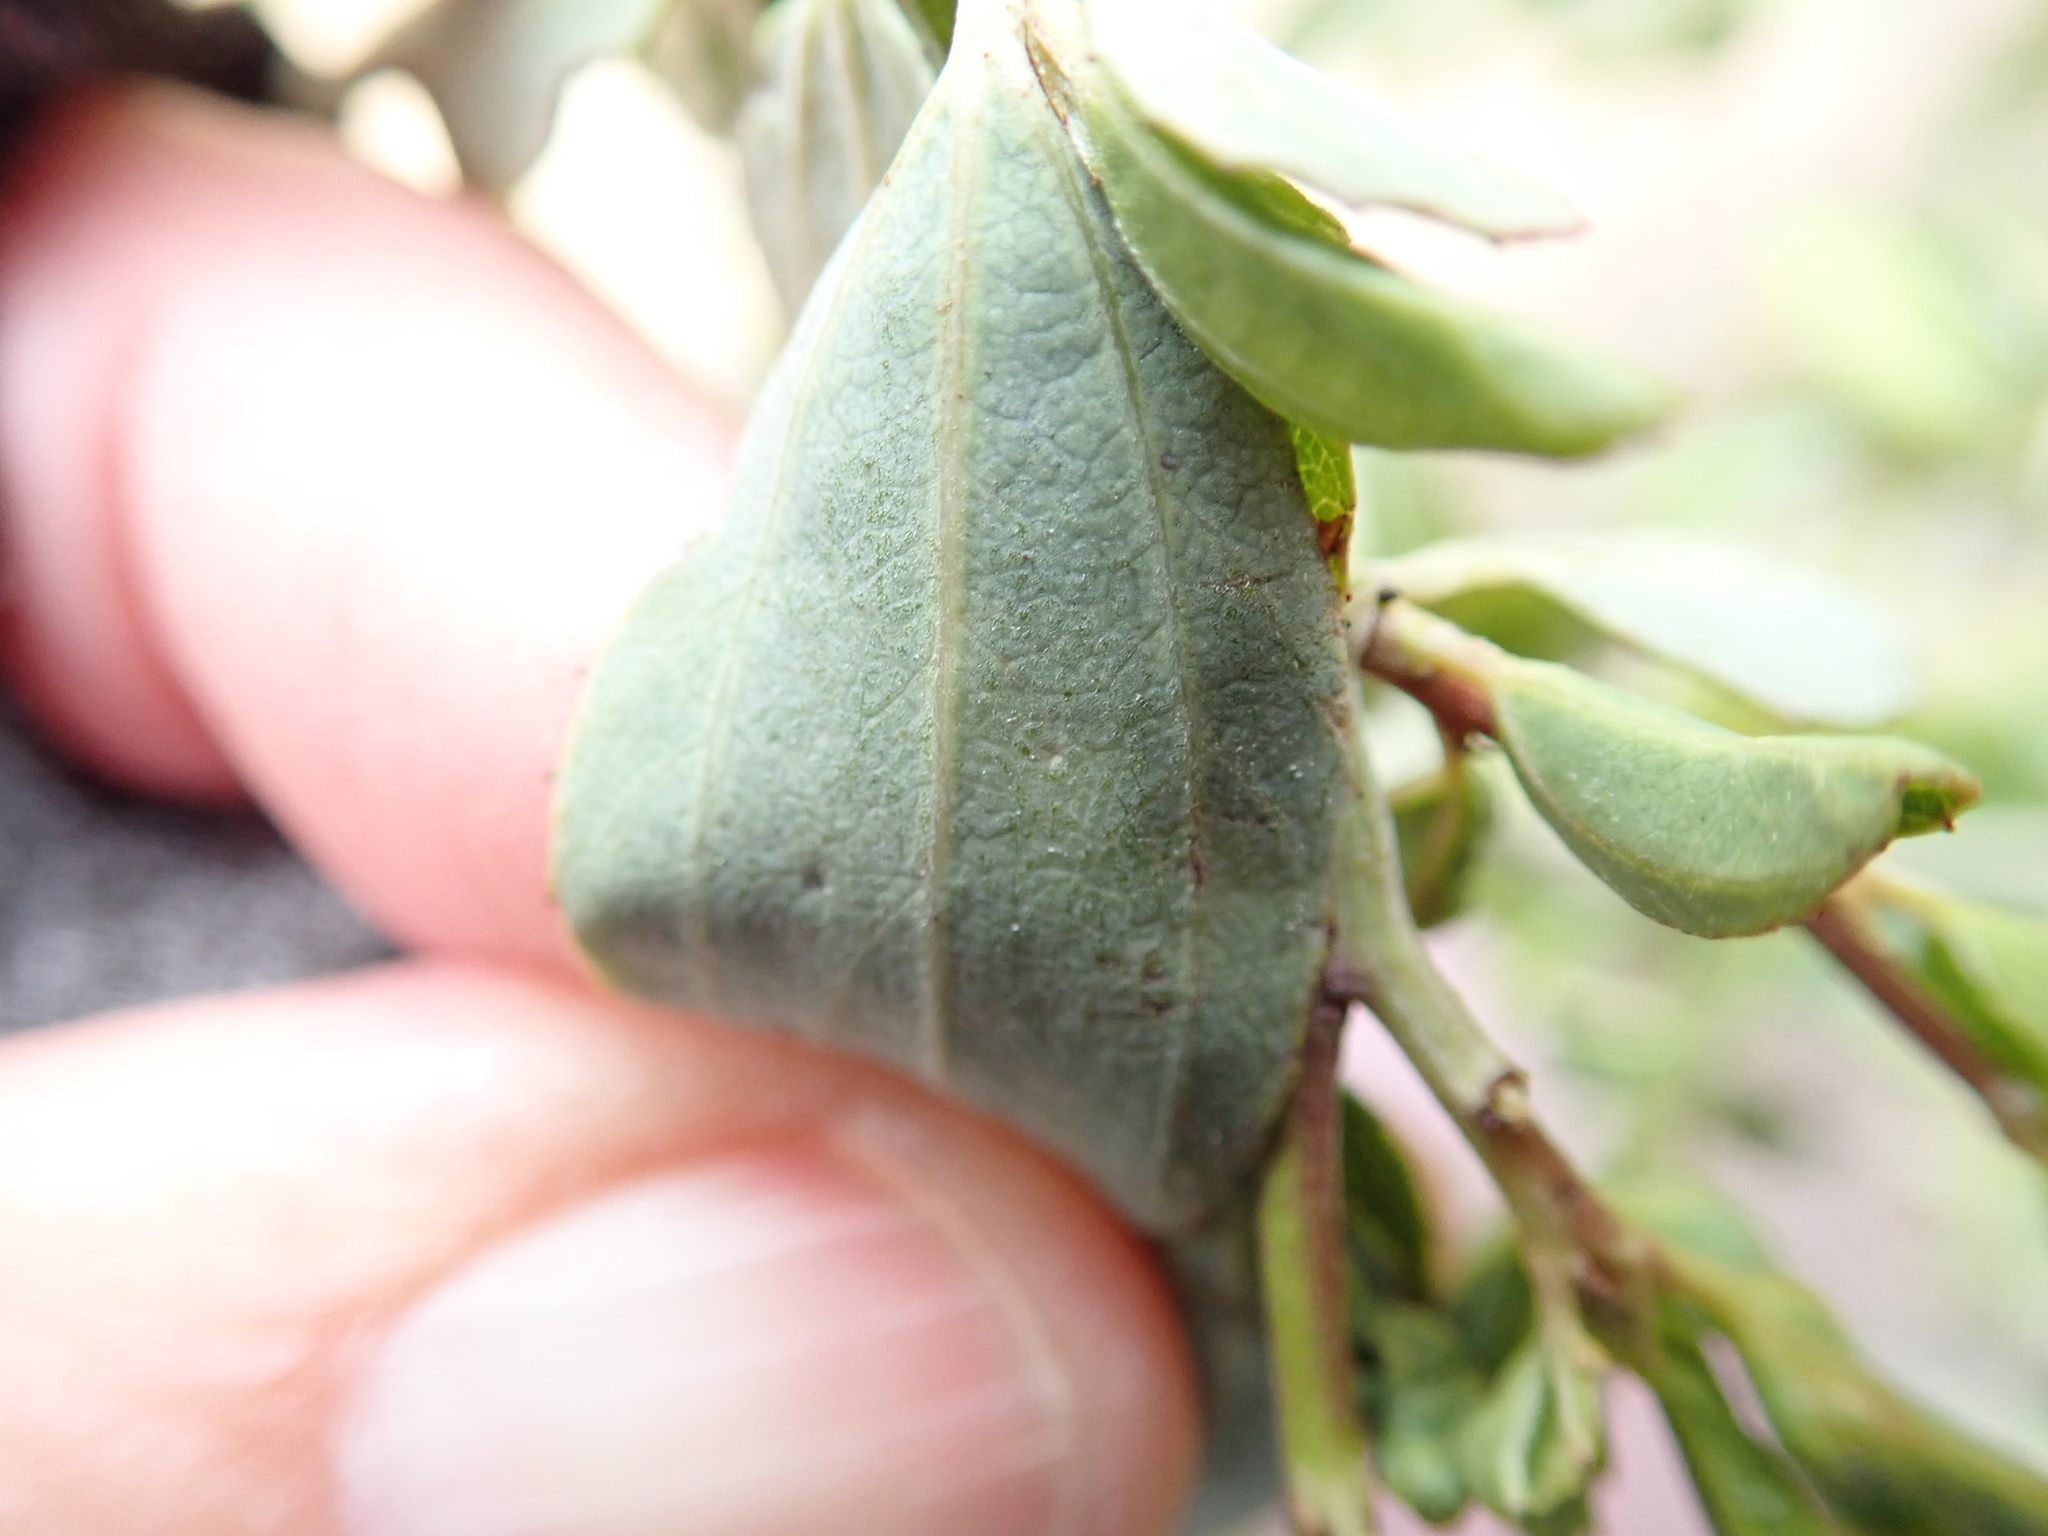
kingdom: Plantae
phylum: Tracheophyta
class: Magnoliopsida
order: Rosales
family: Rhamnaceae
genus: Ceanothus
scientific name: Ceanothus cyaneus
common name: Lakeside ceanothus
